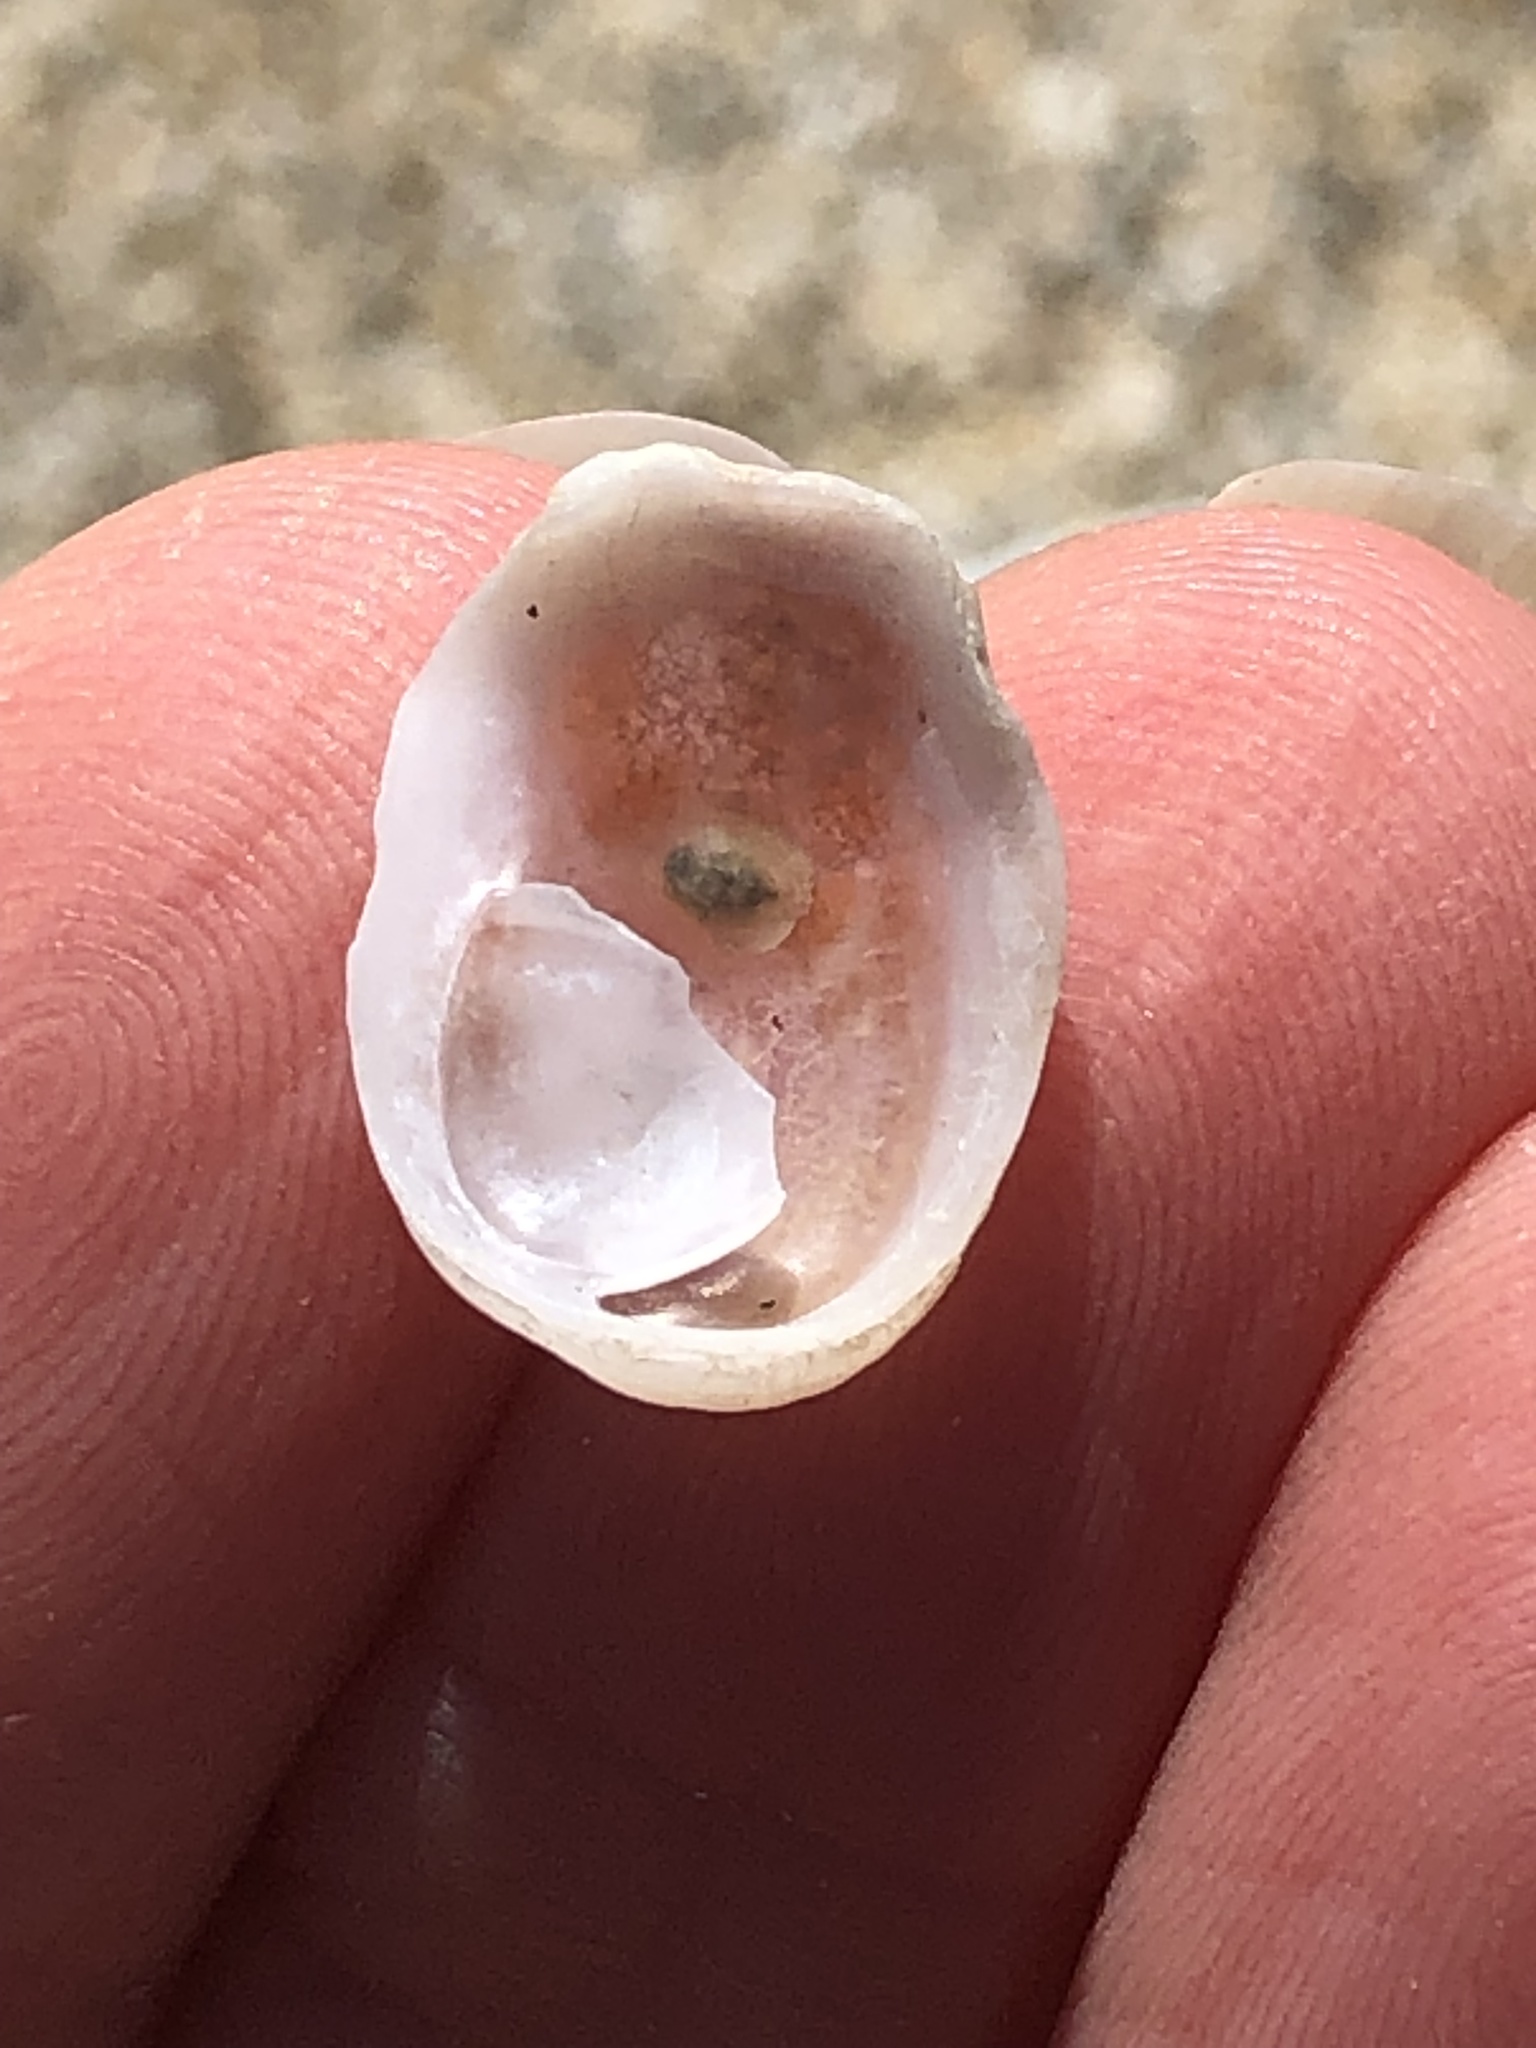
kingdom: Animalia
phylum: Mollusca
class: Gastropoda
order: Littorinimorpha
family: Calyptraeidae
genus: Crepipatella
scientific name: Crepipatella lingulata
